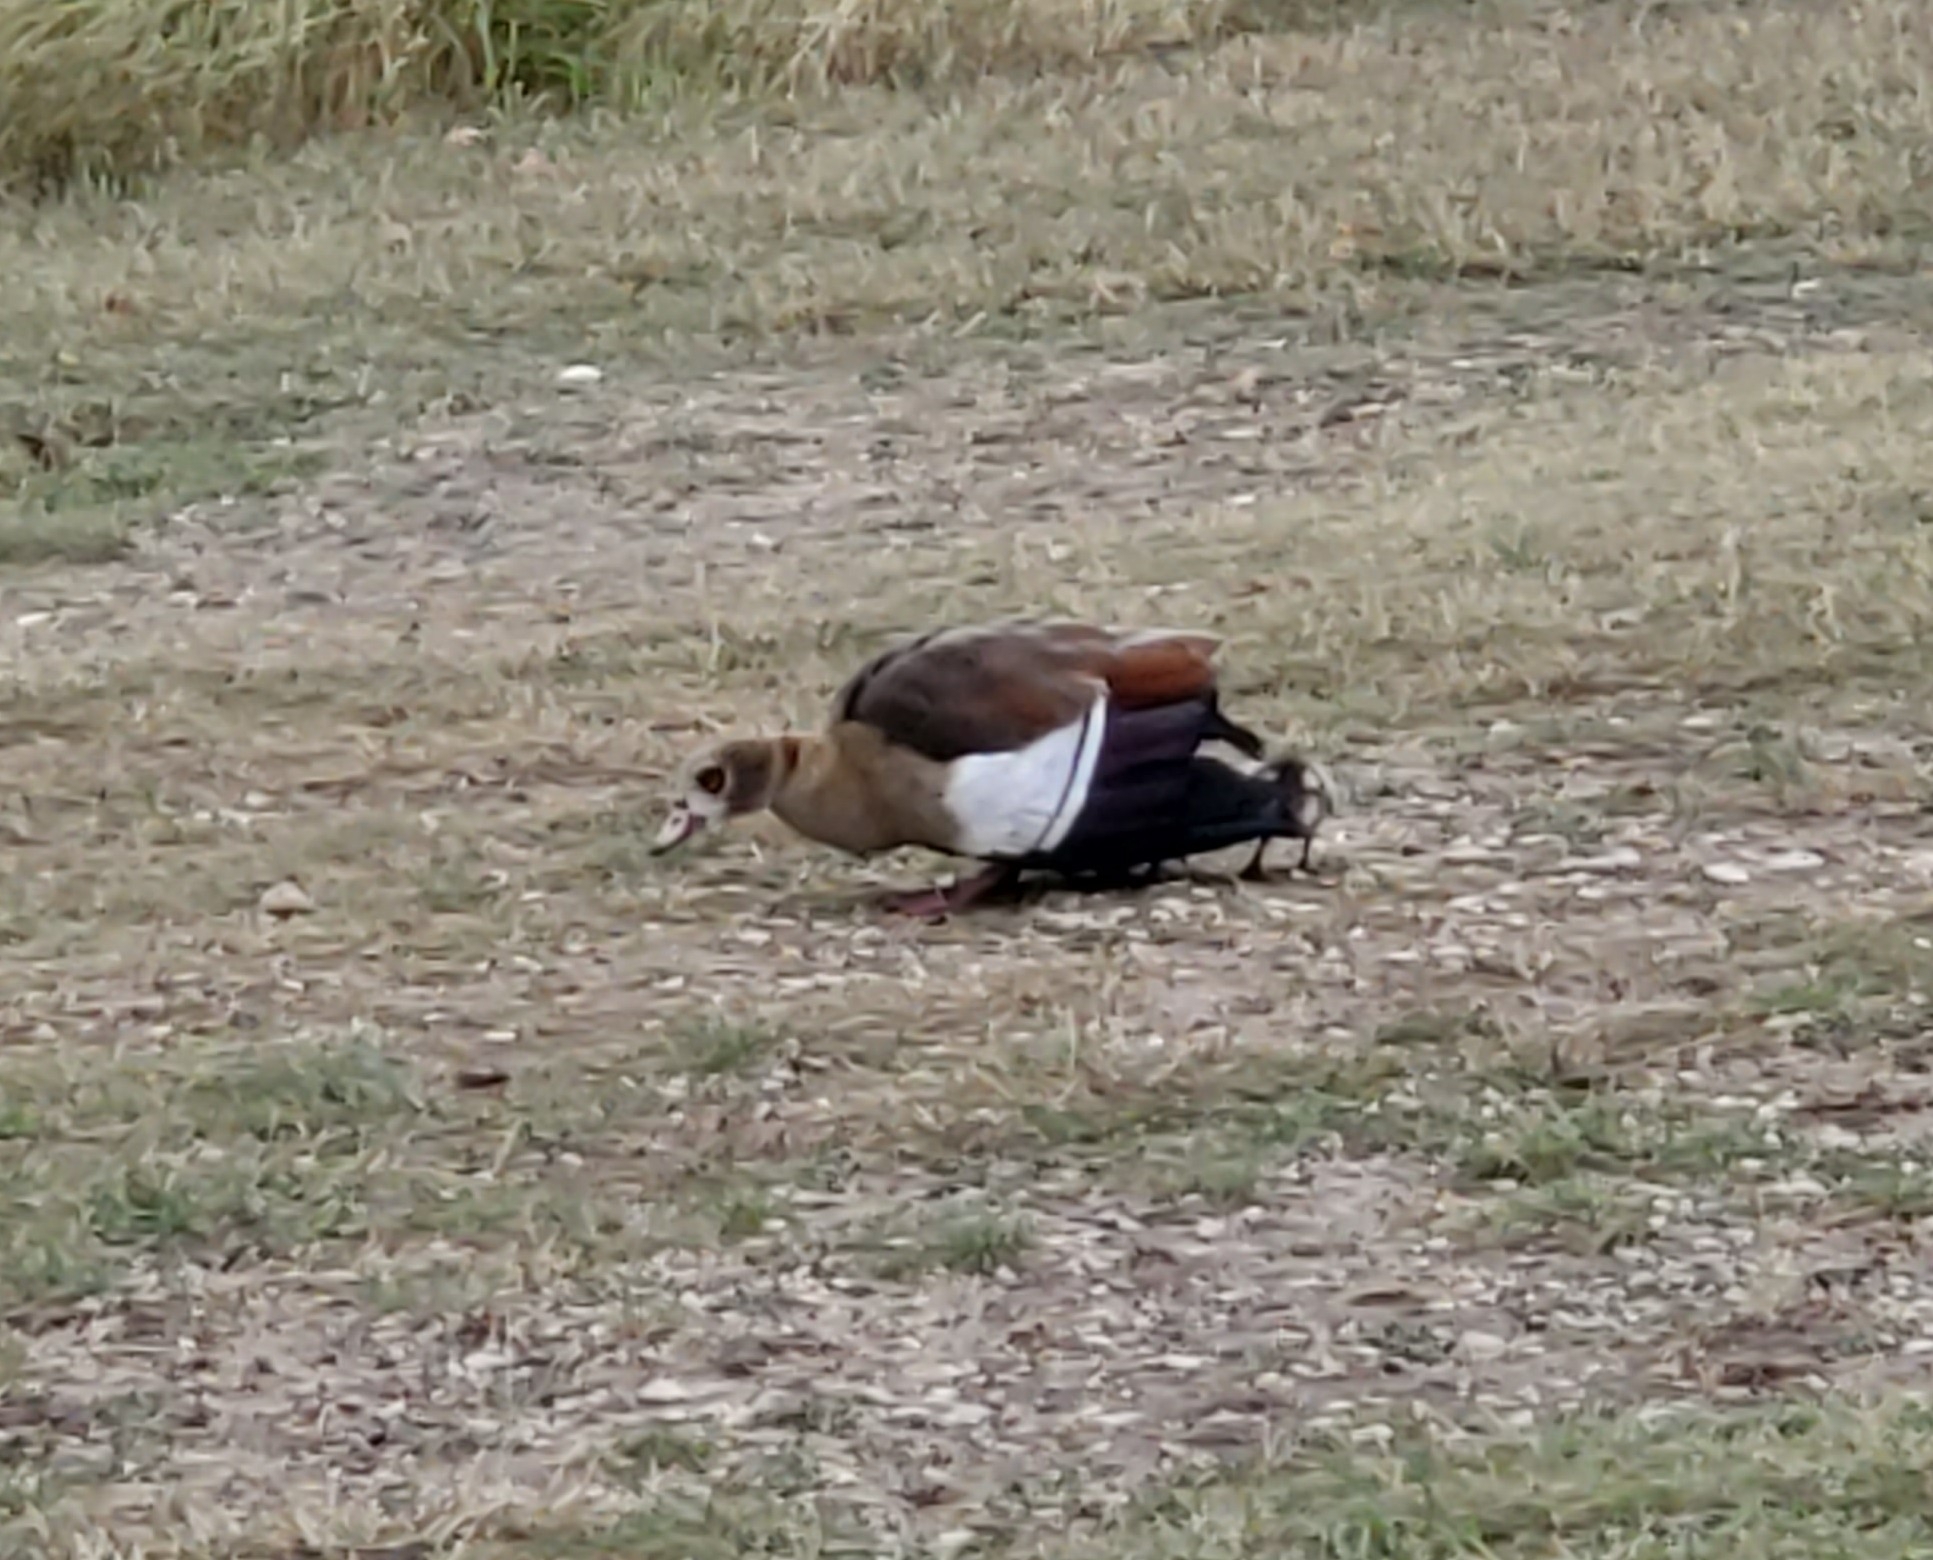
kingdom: Animalia
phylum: Chordata
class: Aves
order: Anseriformes
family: Anatidae
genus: Alopochen
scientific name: Alopochen aegyptiaca
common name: Egyptian goose
